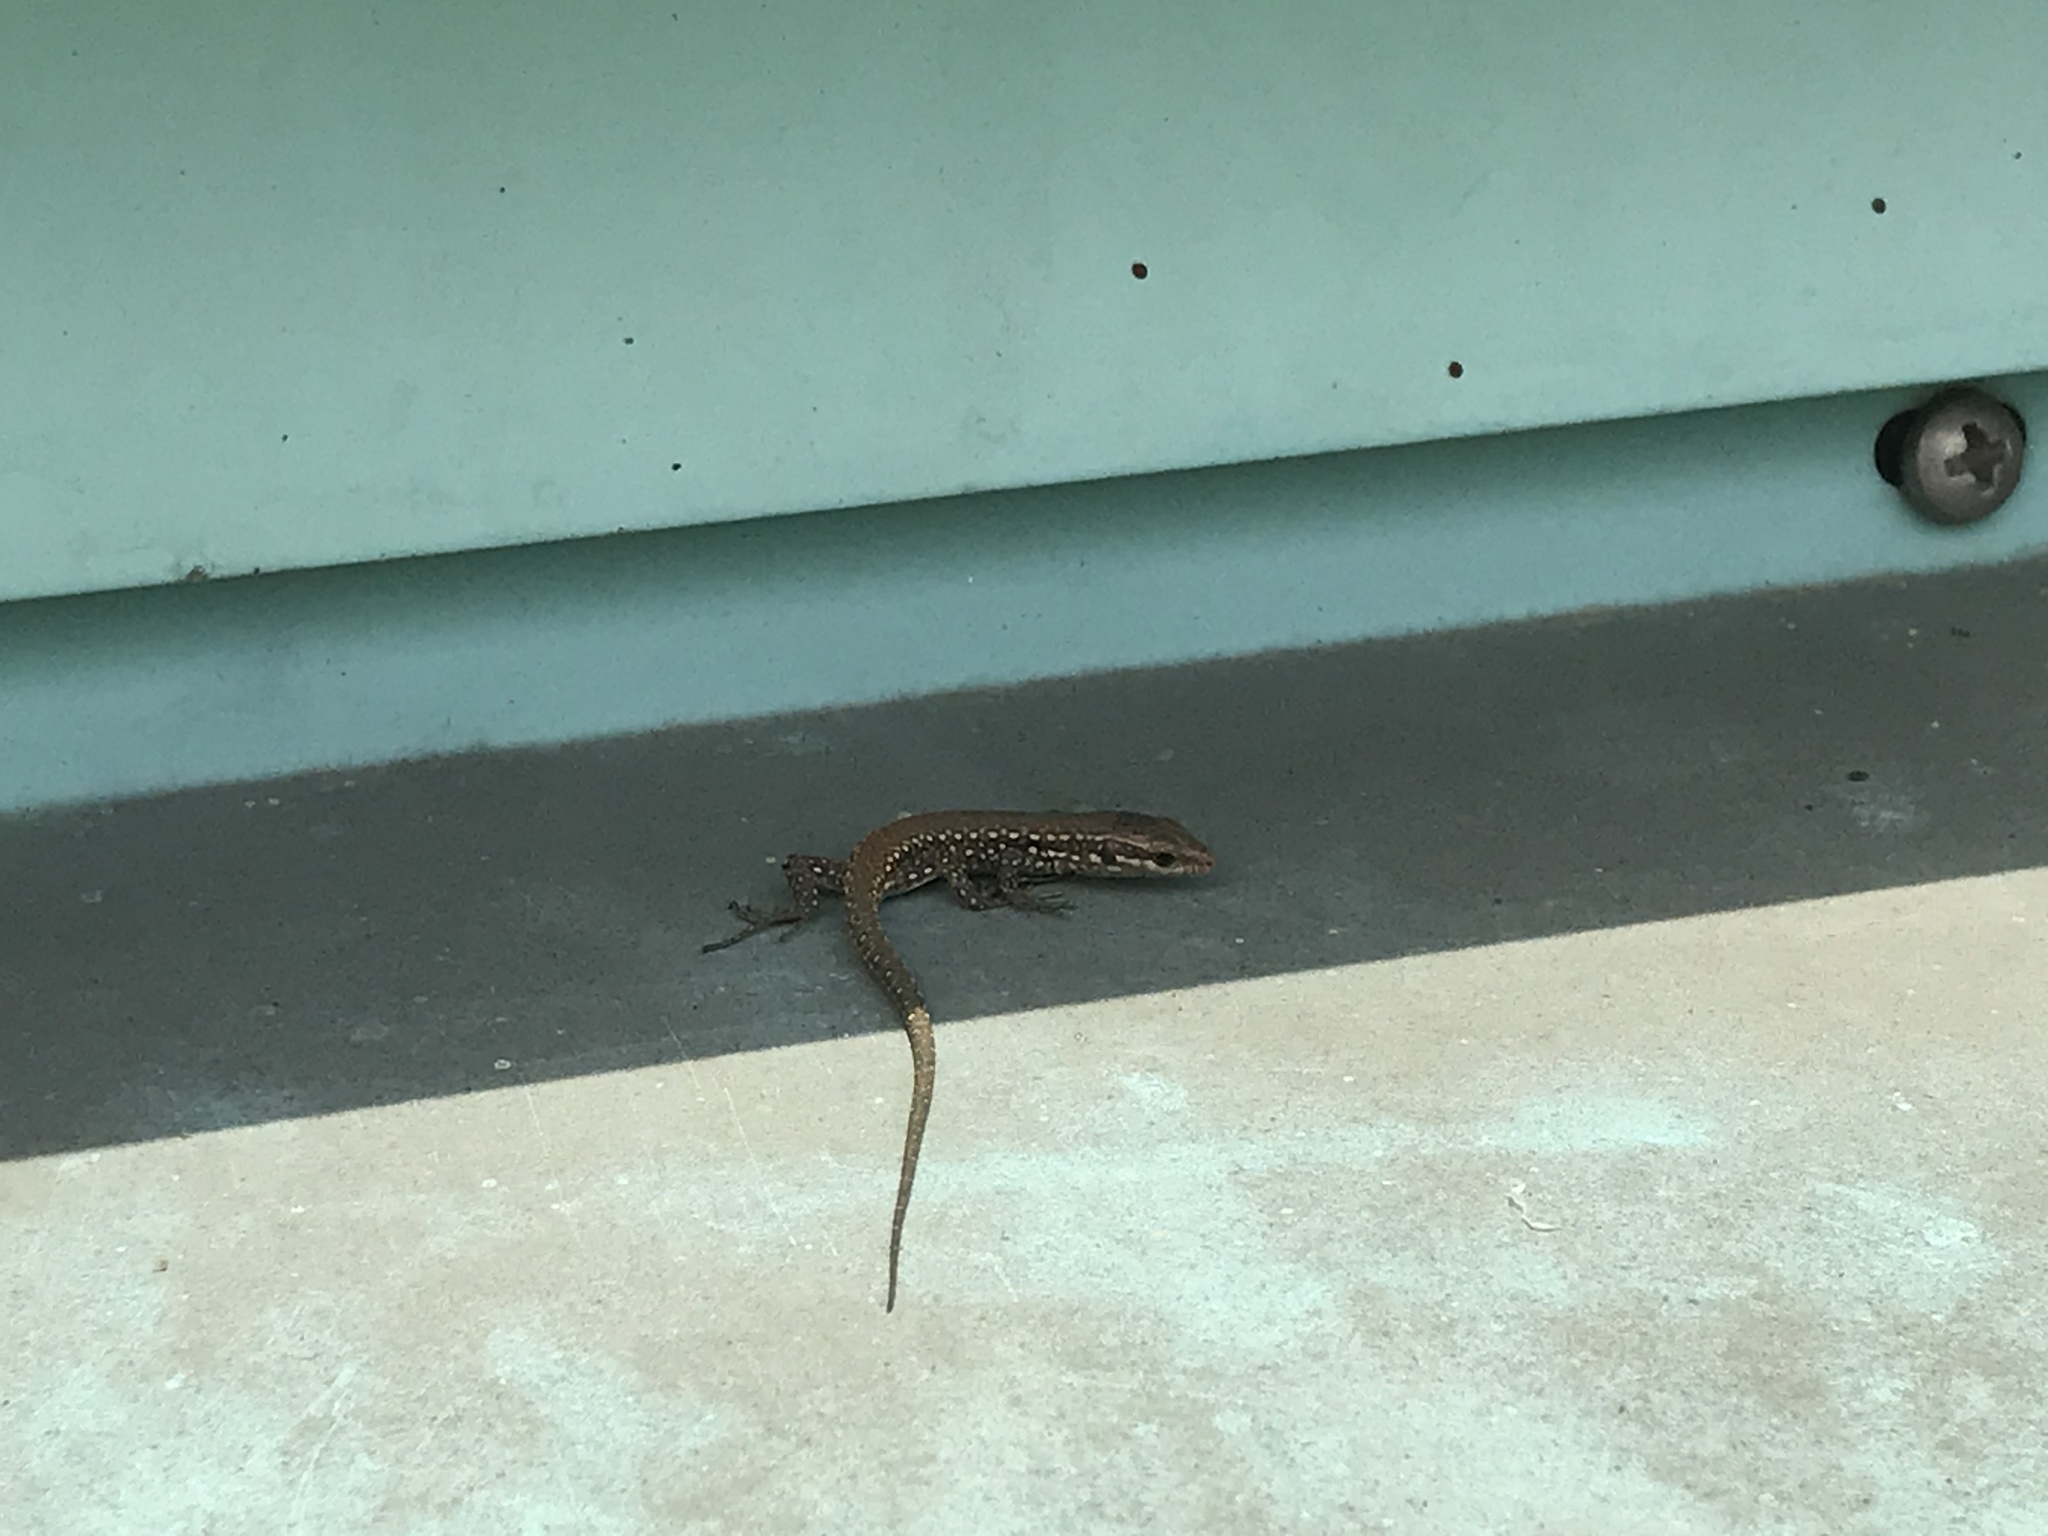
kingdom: Animalia
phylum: Chordata
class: Squamata
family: Lacertidae
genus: Podarcis
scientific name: Podarcis muralis
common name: Common wall lizard
